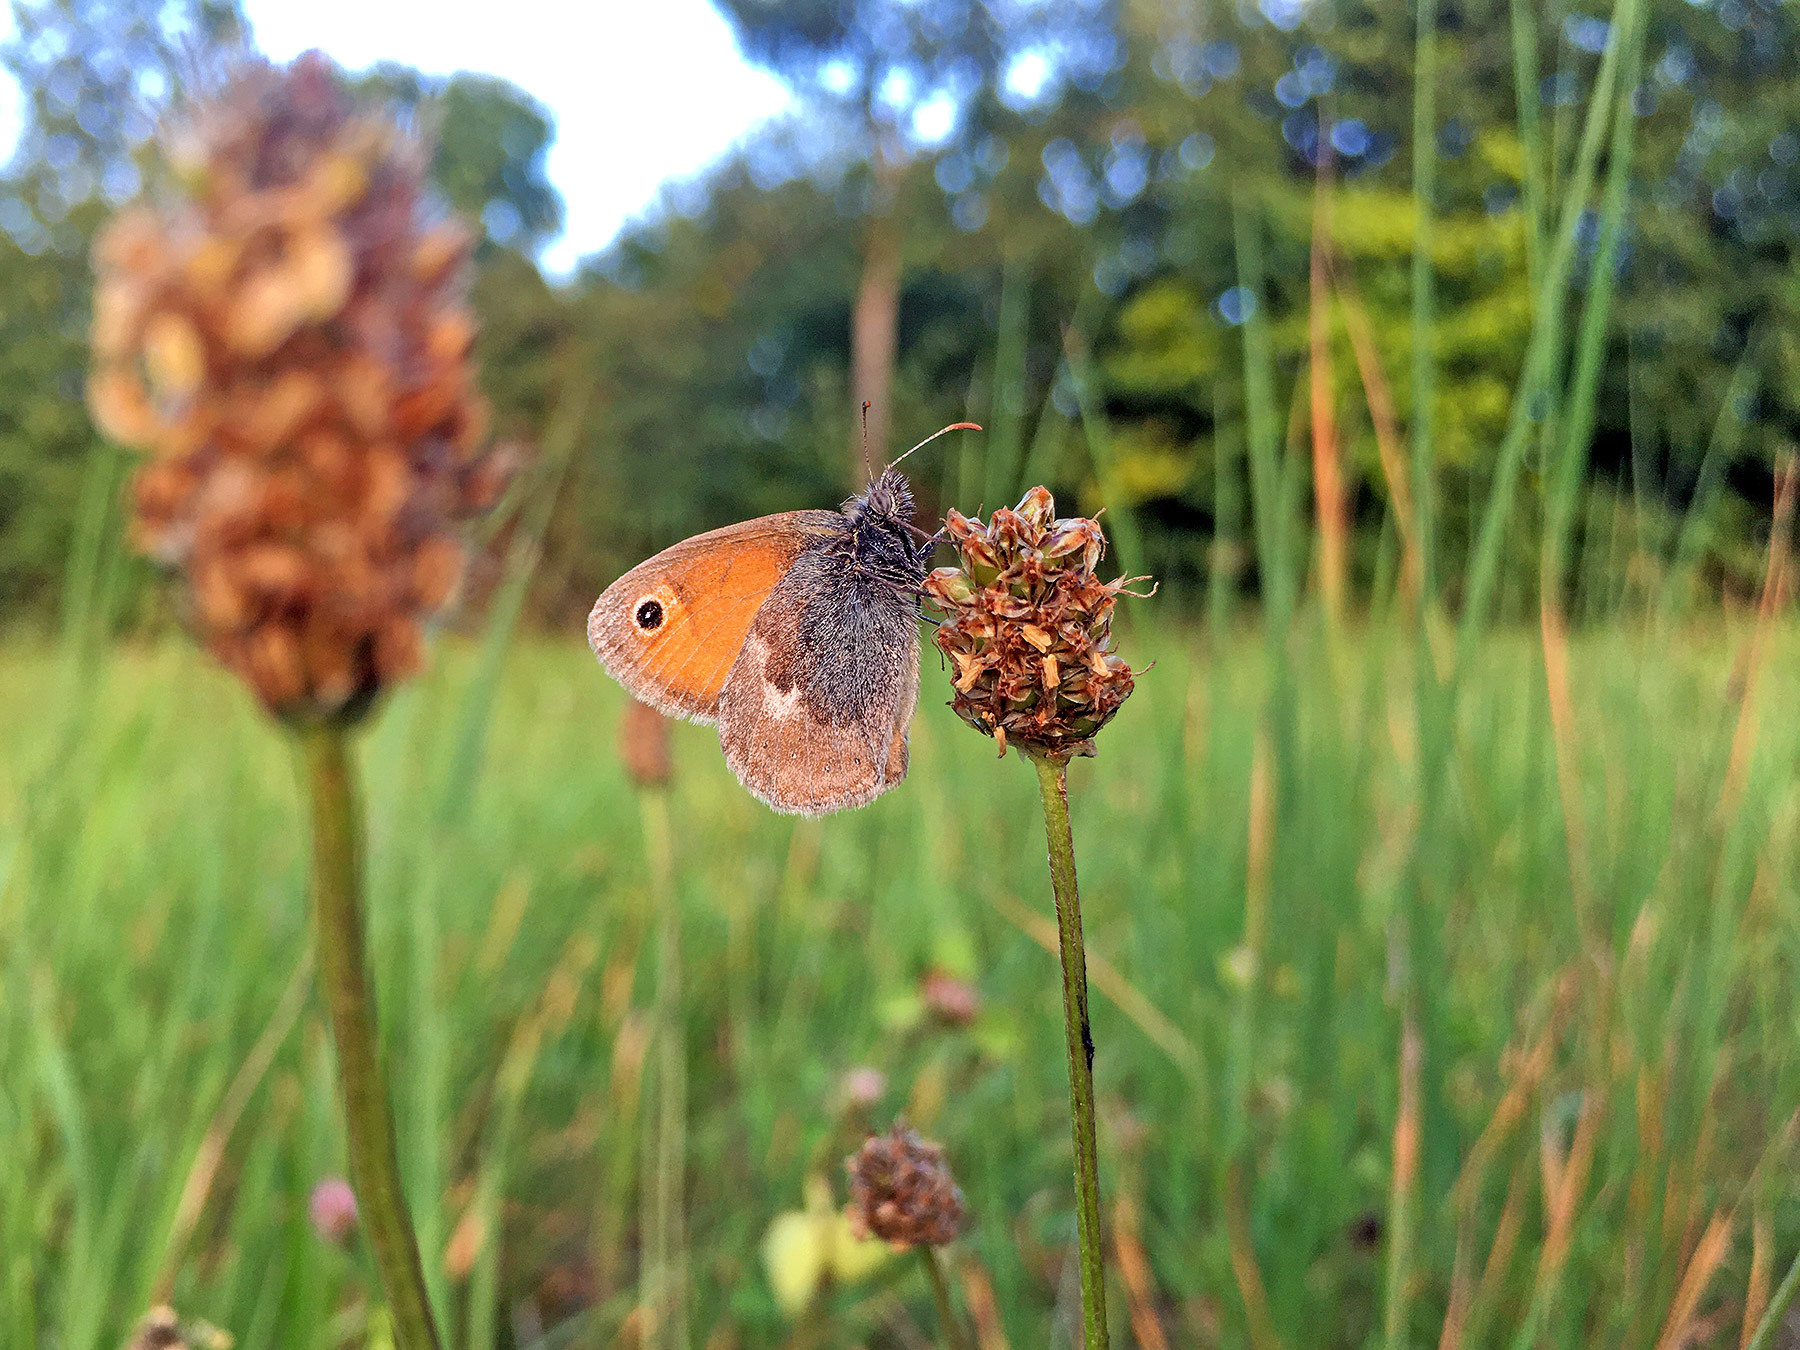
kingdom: Animalia
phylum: Arthropoda
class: Insecta
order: Lepidoptera
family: Nymphalidae
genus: Coenonympha
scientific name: Coenonympha pamphilus
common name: Small heath
